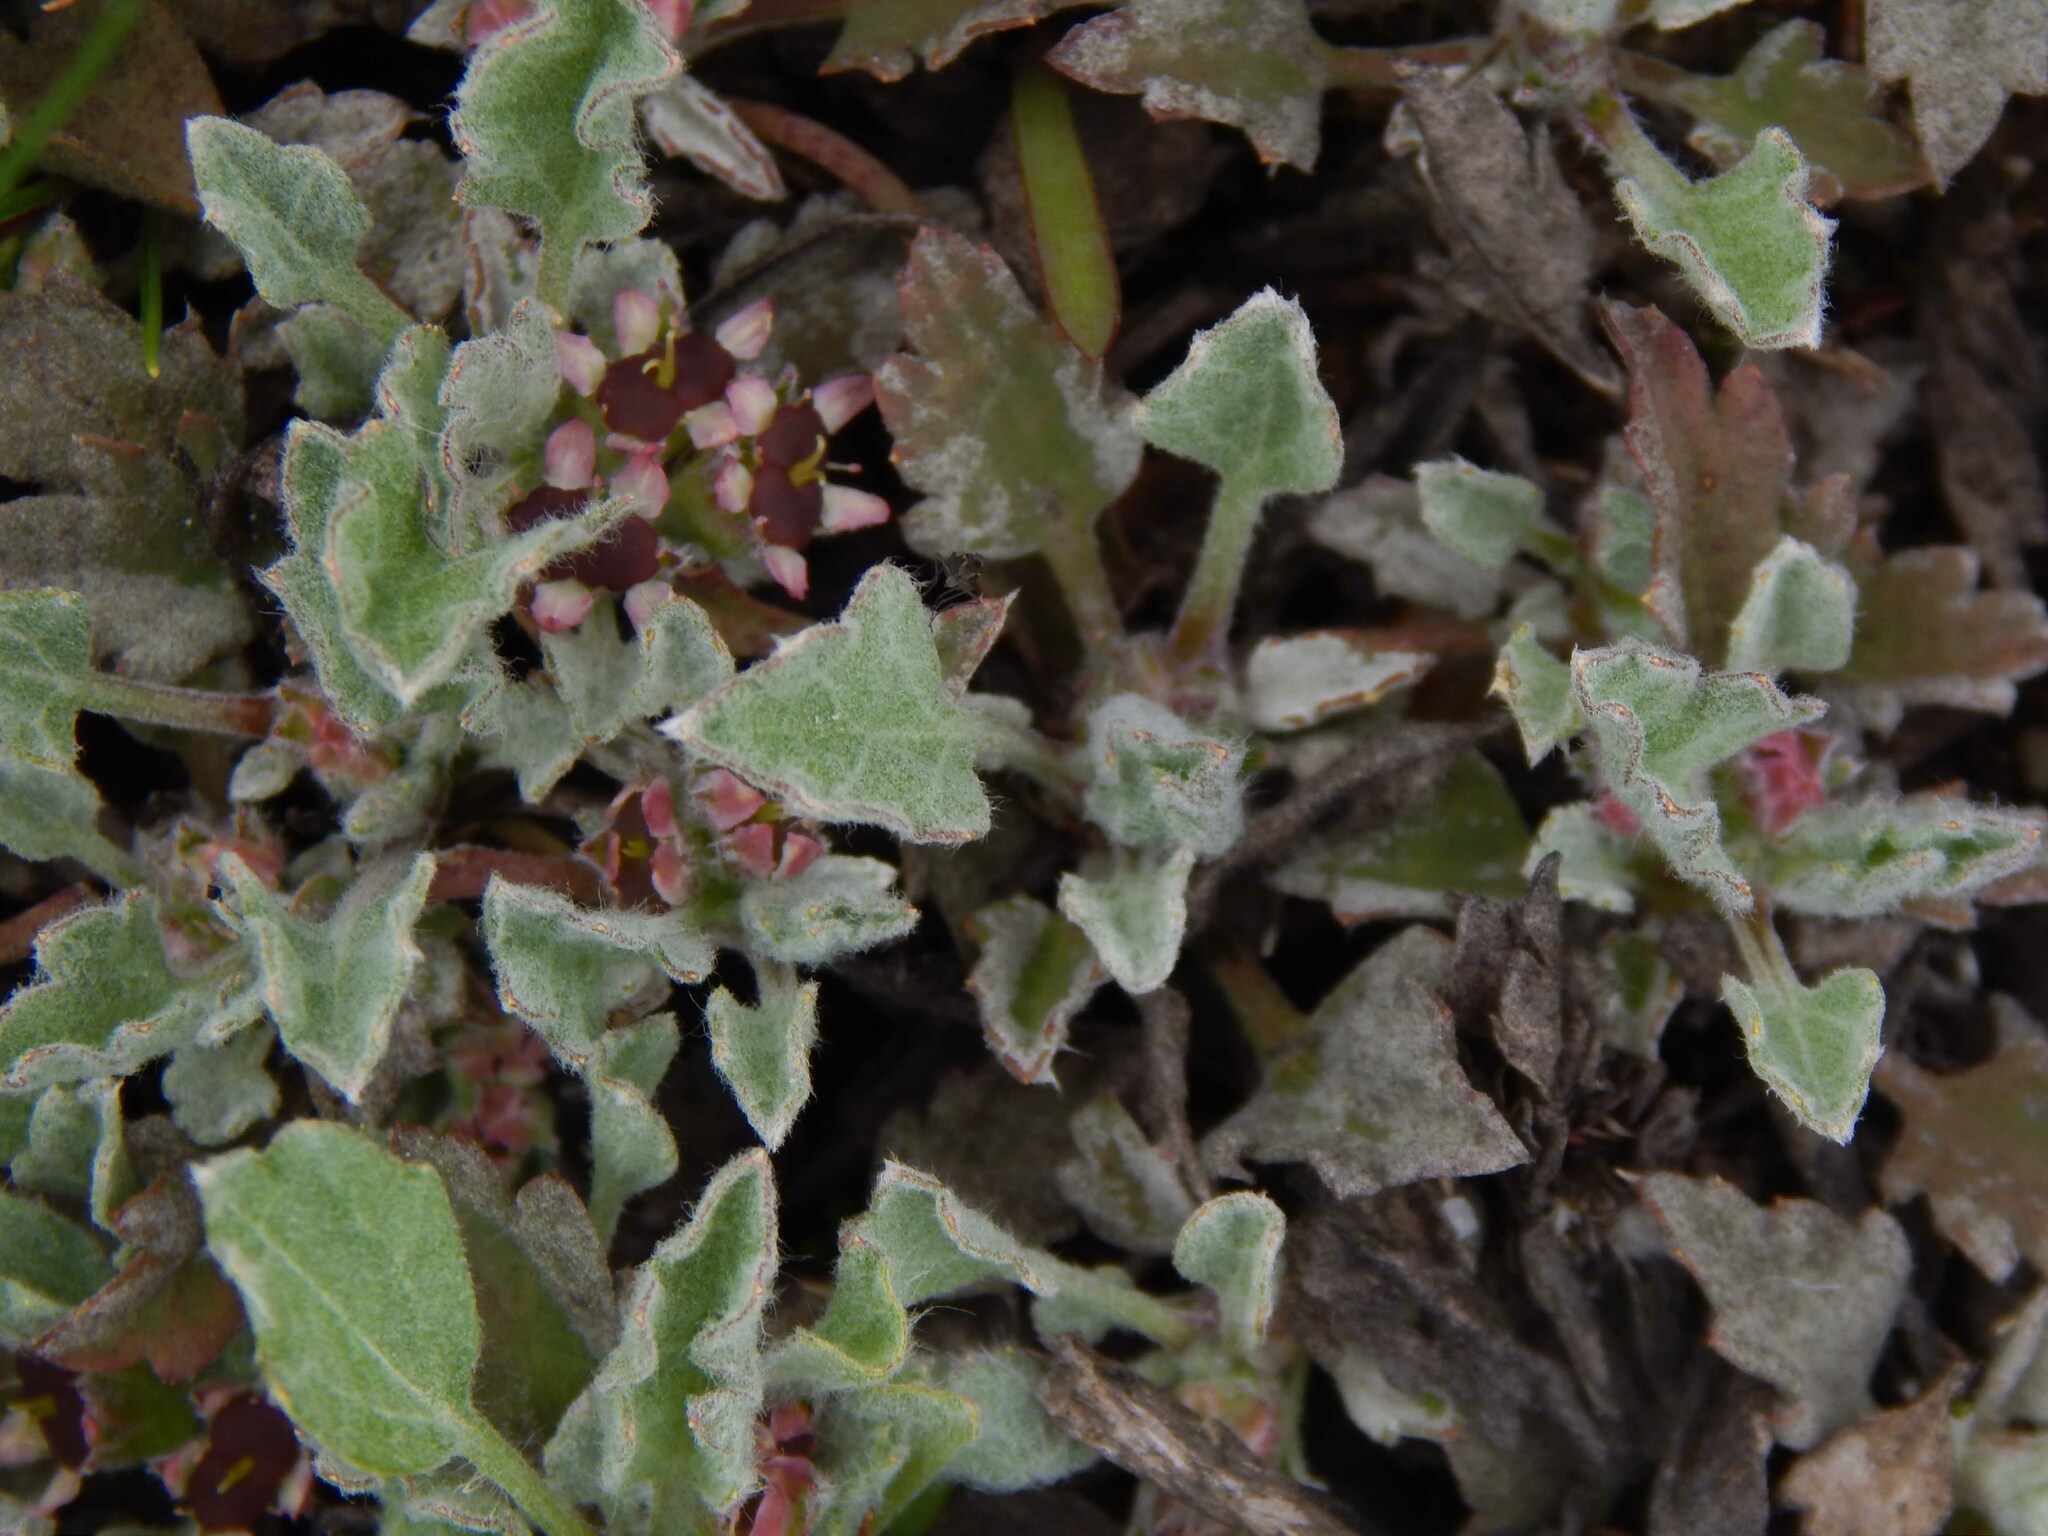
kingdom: Plantae
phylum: Tracheophyta
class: Magnoliopsida
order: Apiales
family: Apiaceae
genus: Centella
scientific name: Centella capensis
